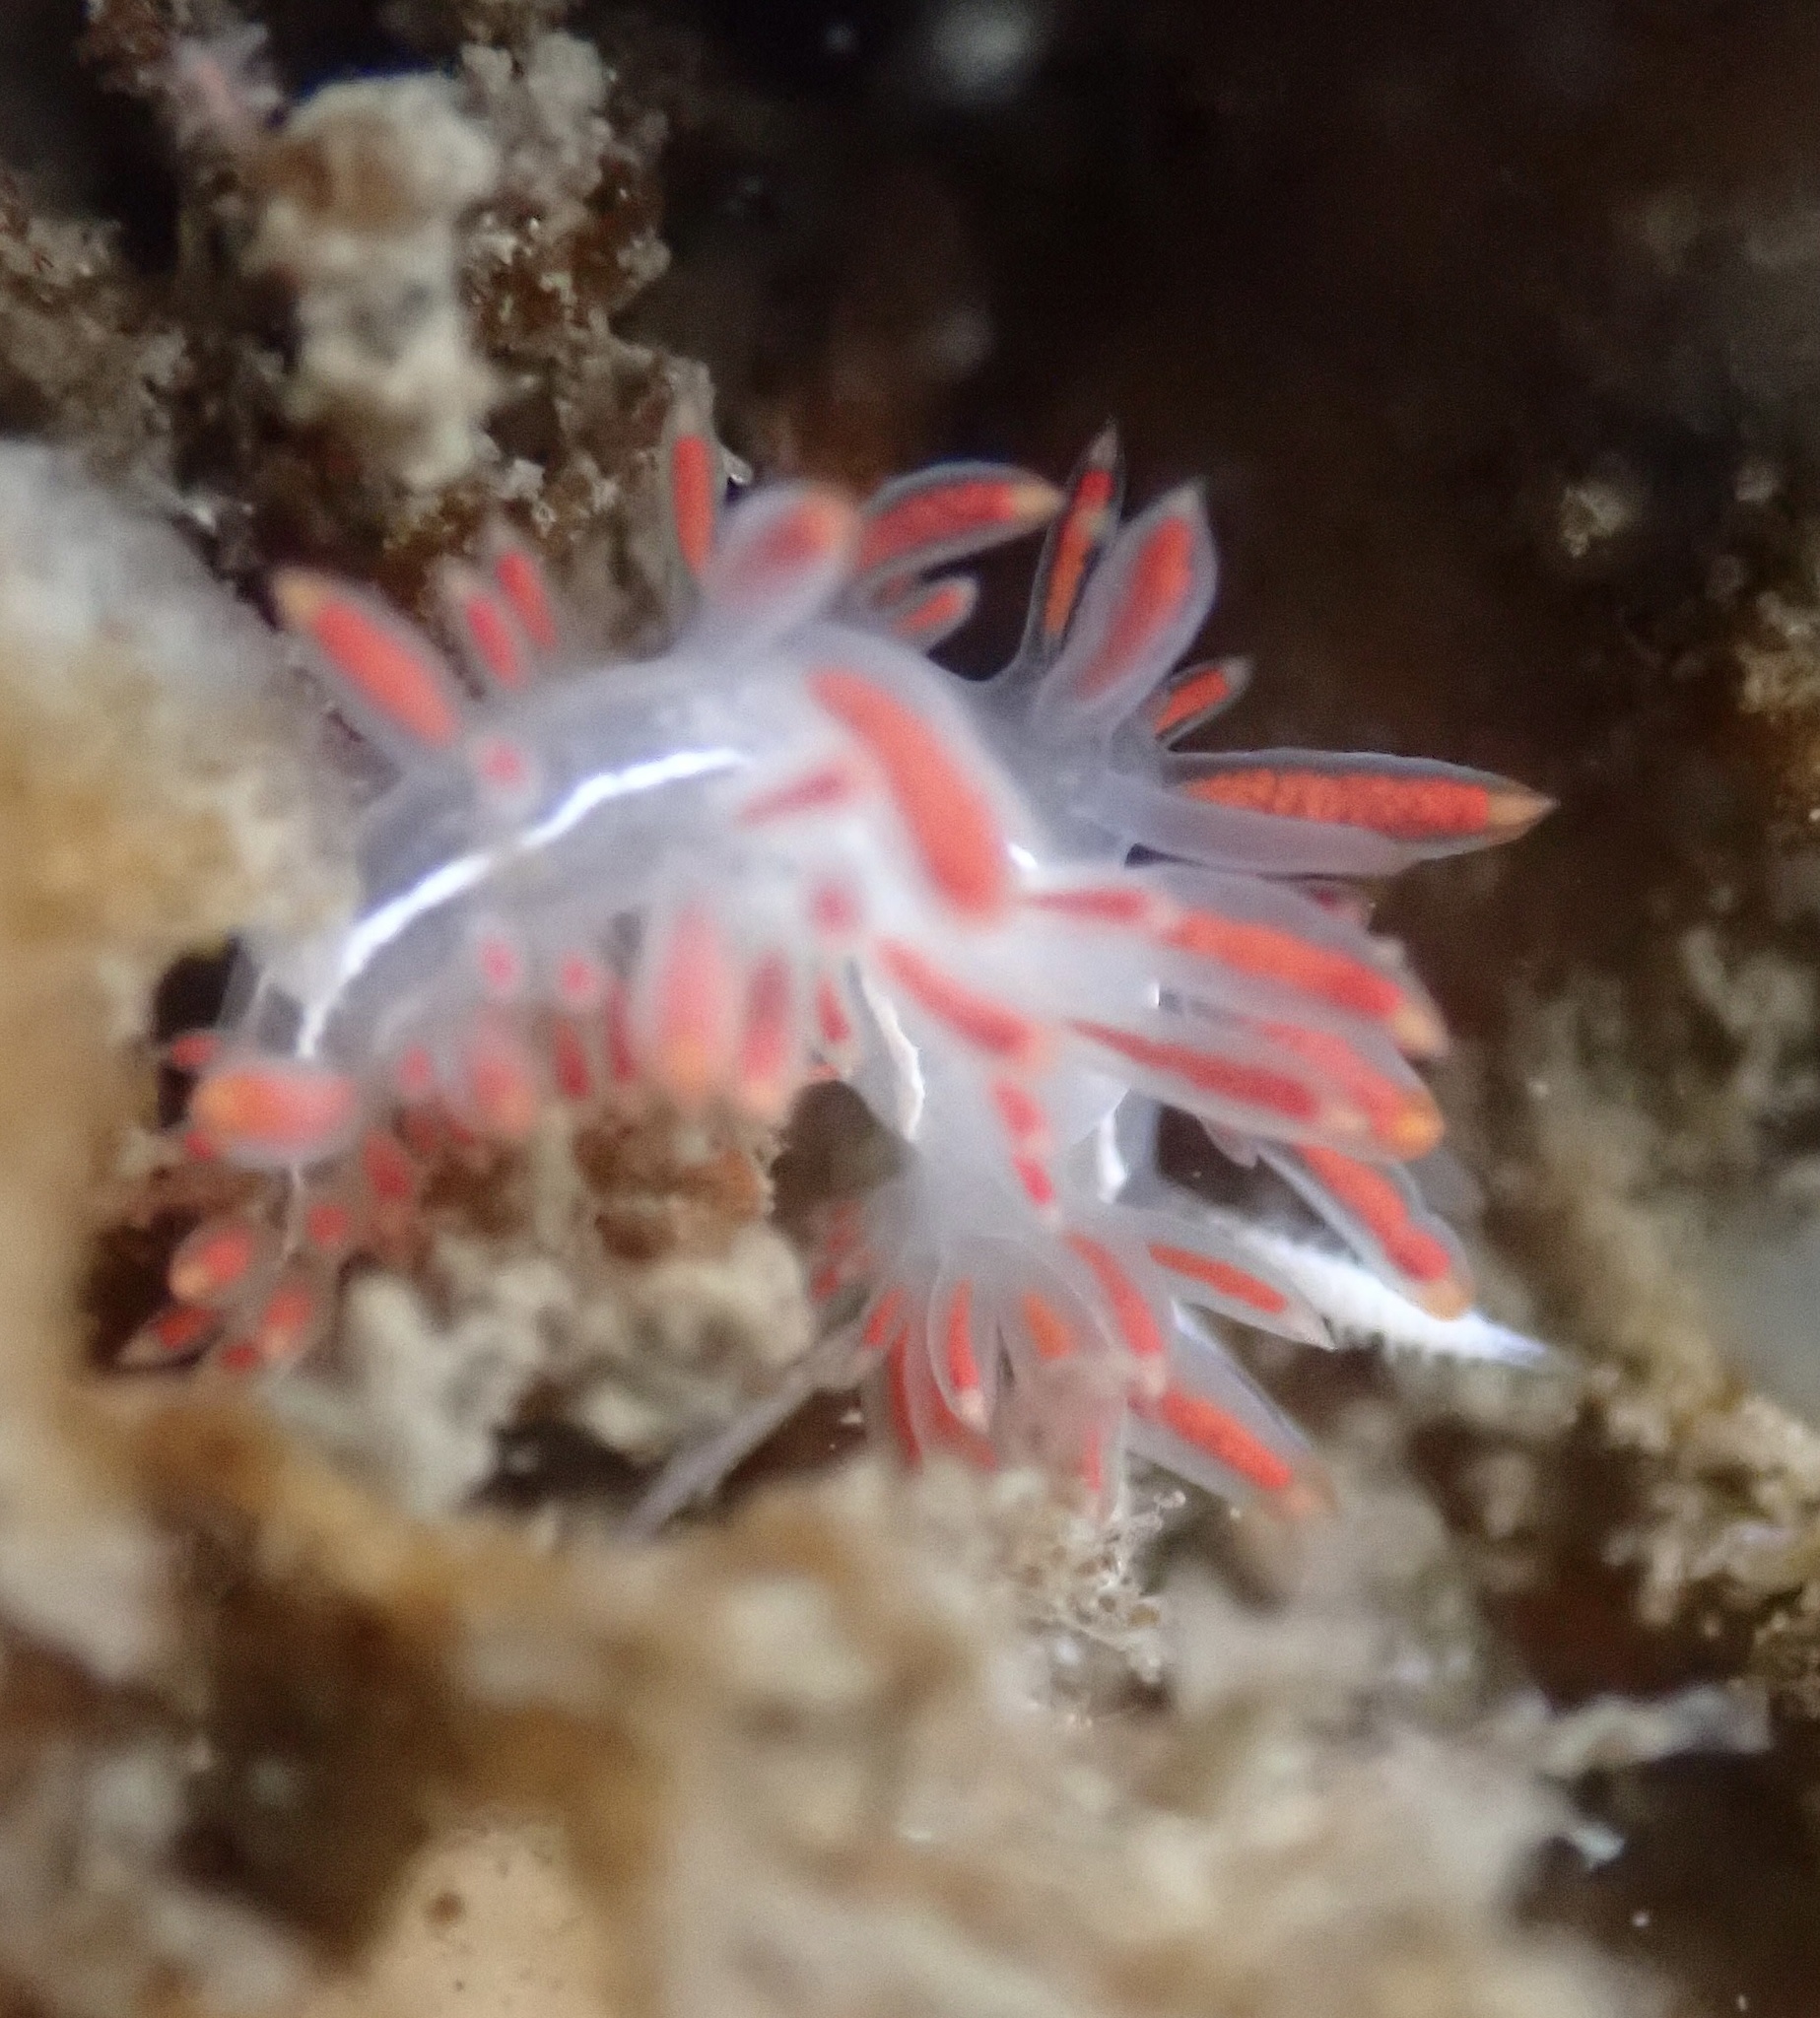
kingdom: Animalia
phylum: Mollusca
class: Gastropoda
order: Nudibranchia
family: Coryphellidae
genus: Coryphella
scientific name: Coryphella trilineata
